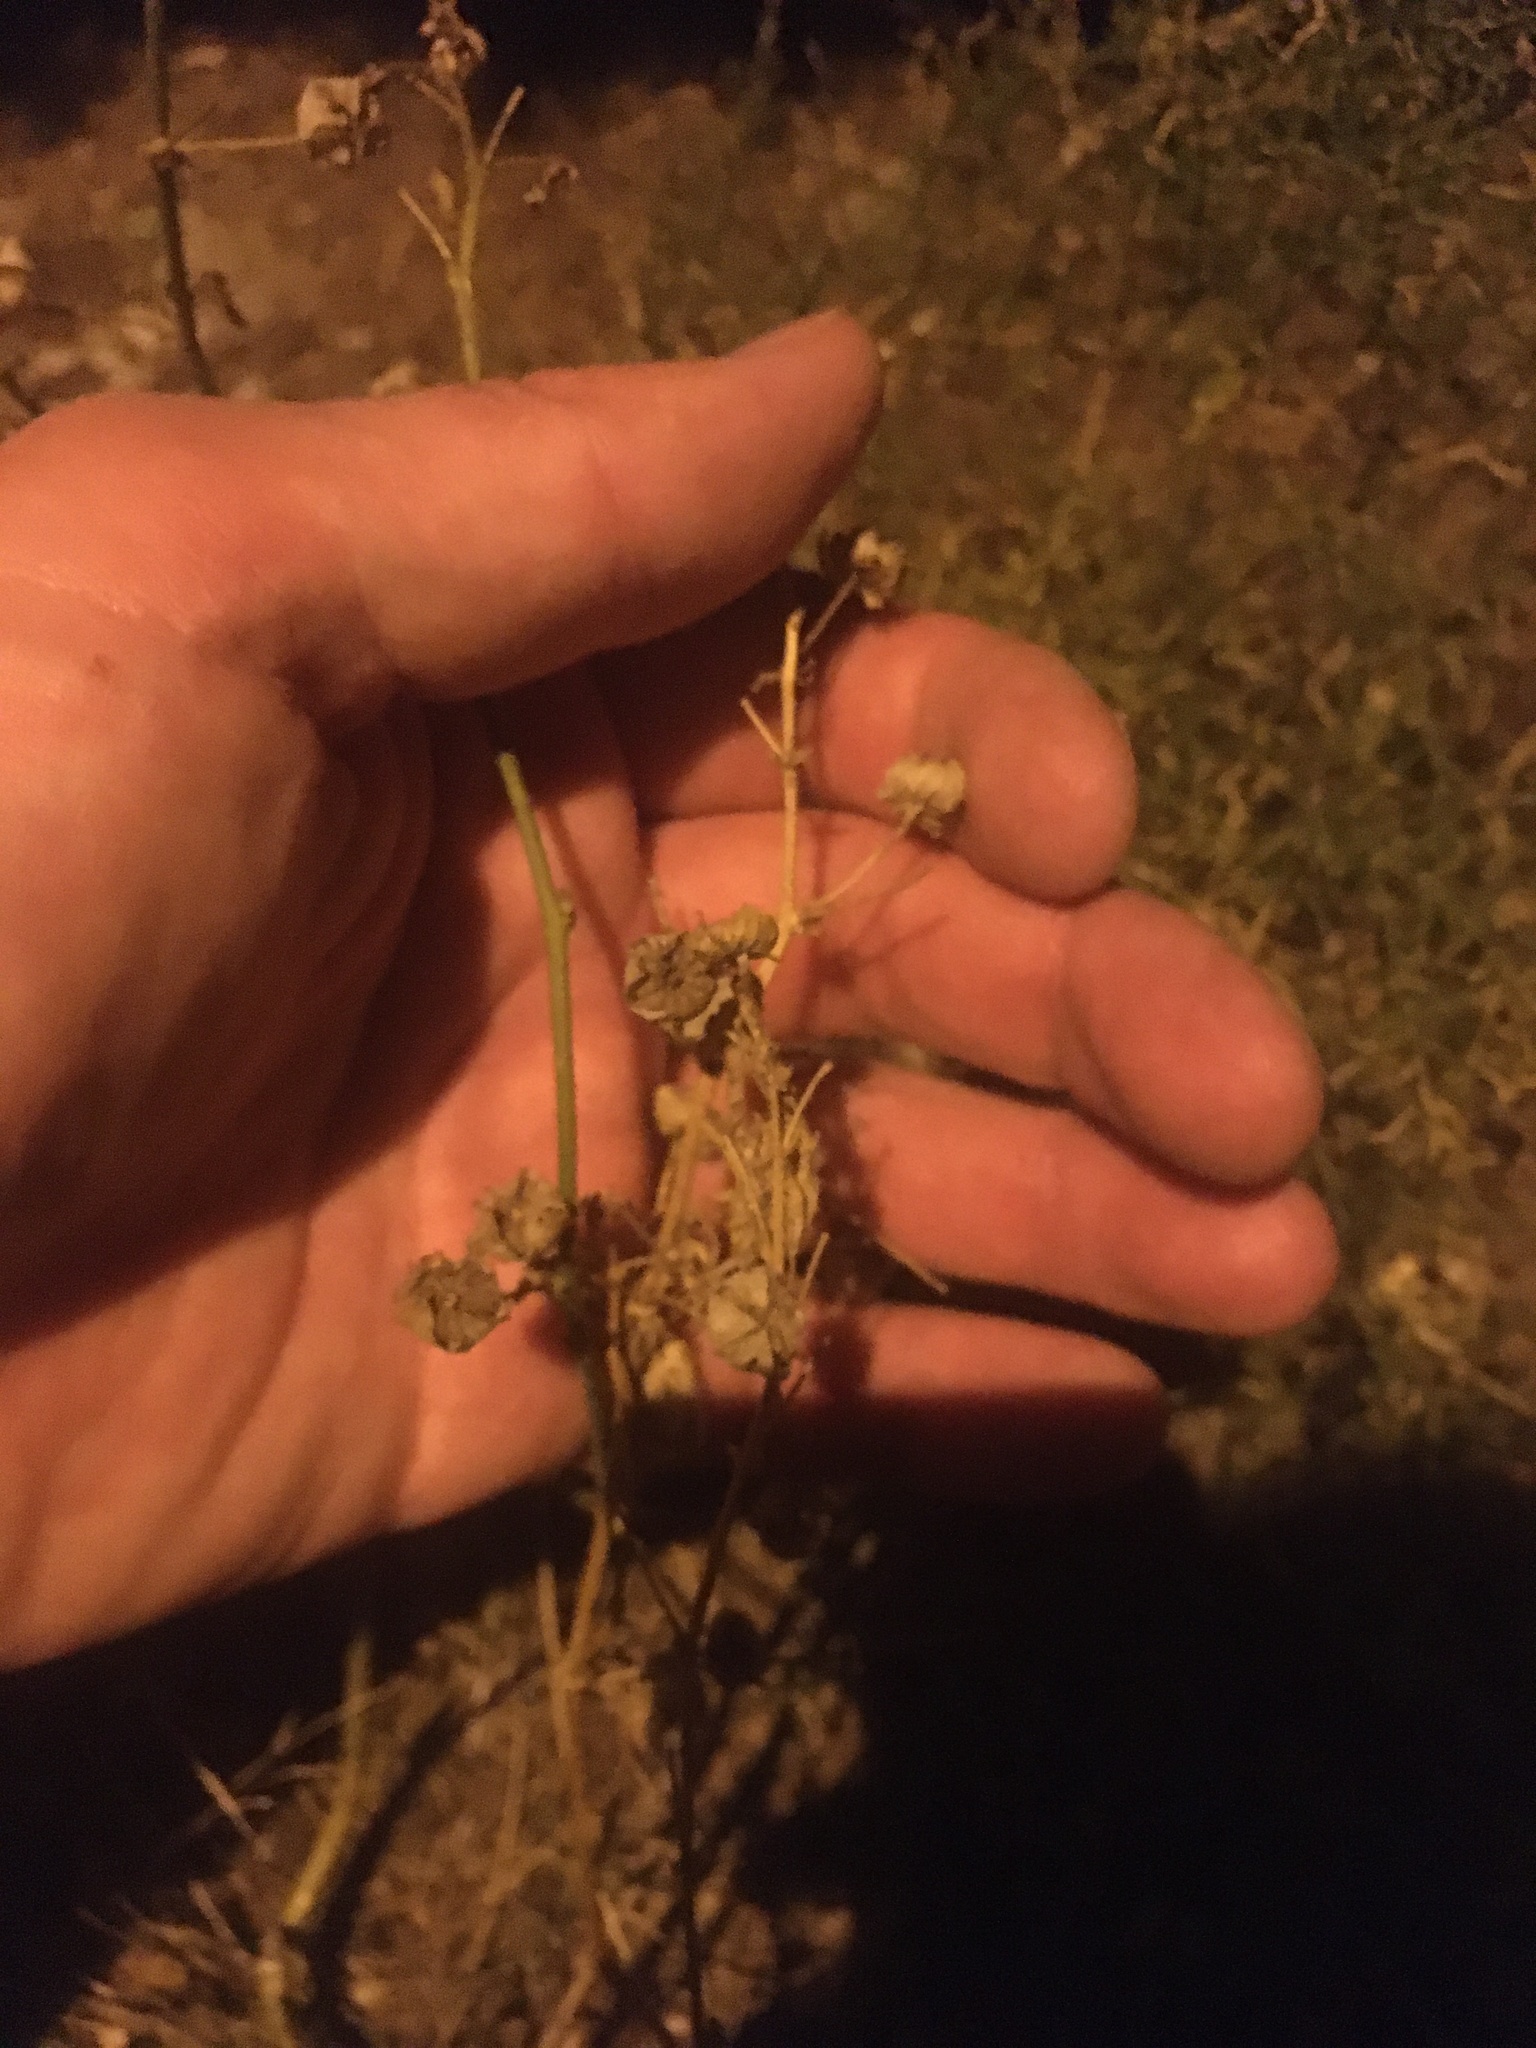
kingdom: Plantae
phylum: Tracheophyta
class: Magnoliopsida
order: Malvales
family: Malvaceae
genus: Malva
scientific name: Malva sylvestris
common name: Common mallow
